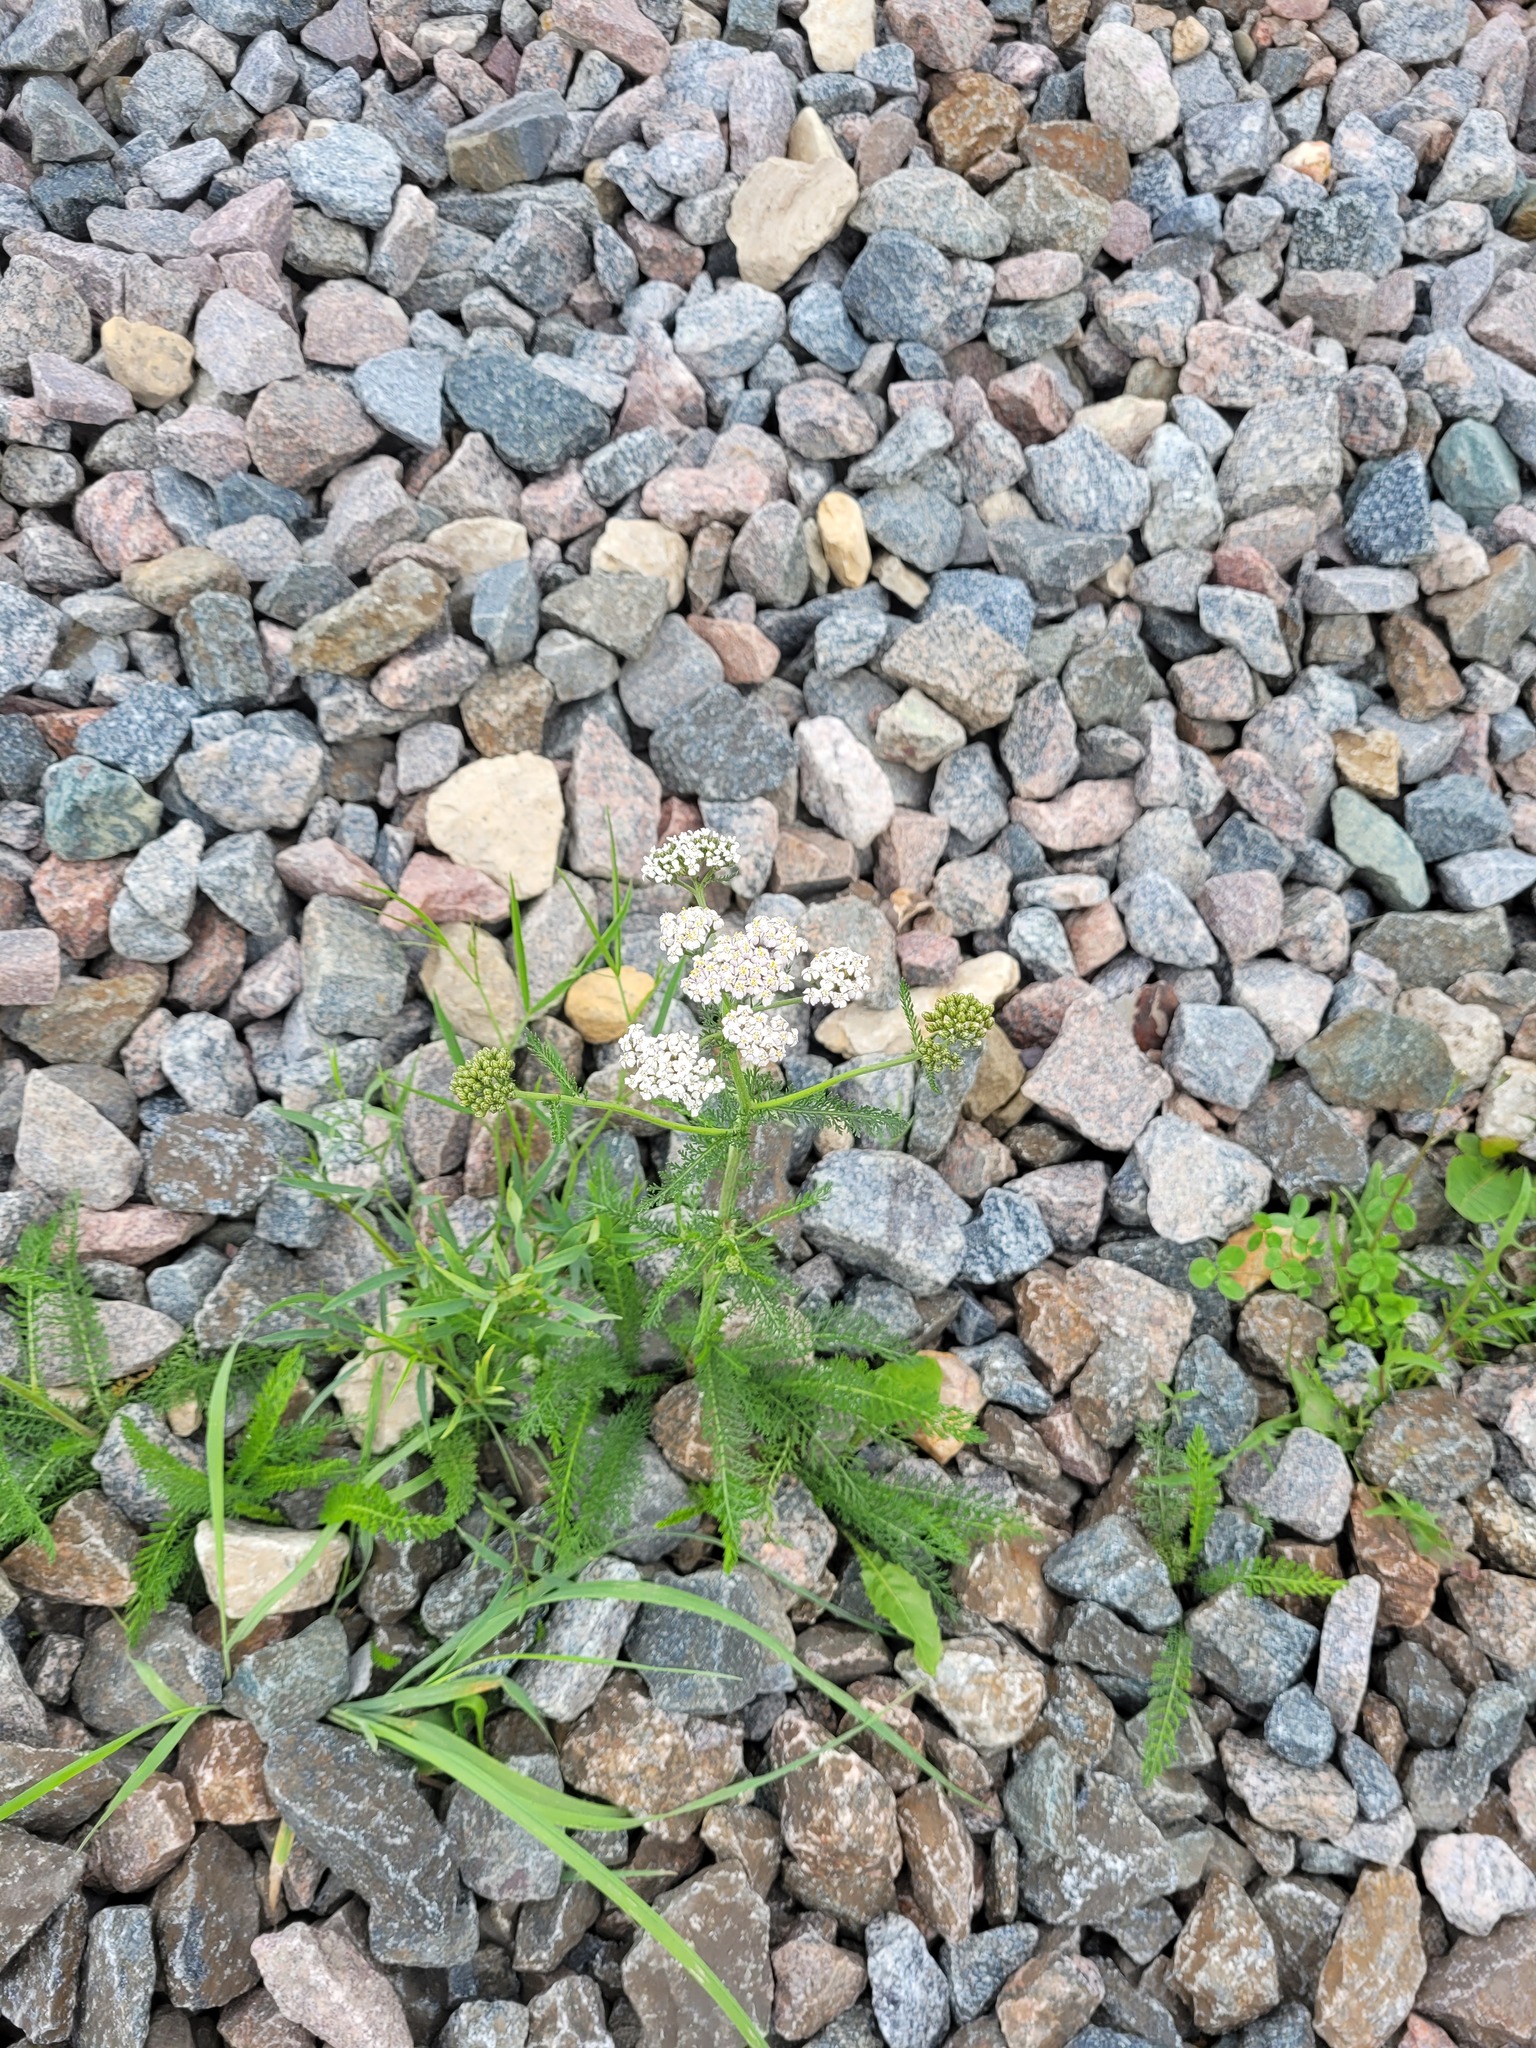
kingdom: Plantae
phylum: Tracheophyta
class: Magnoliopsida
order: Asterales
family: Asteraceae
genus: Achillea
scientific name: Achillea millefolium
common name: Yarrow
